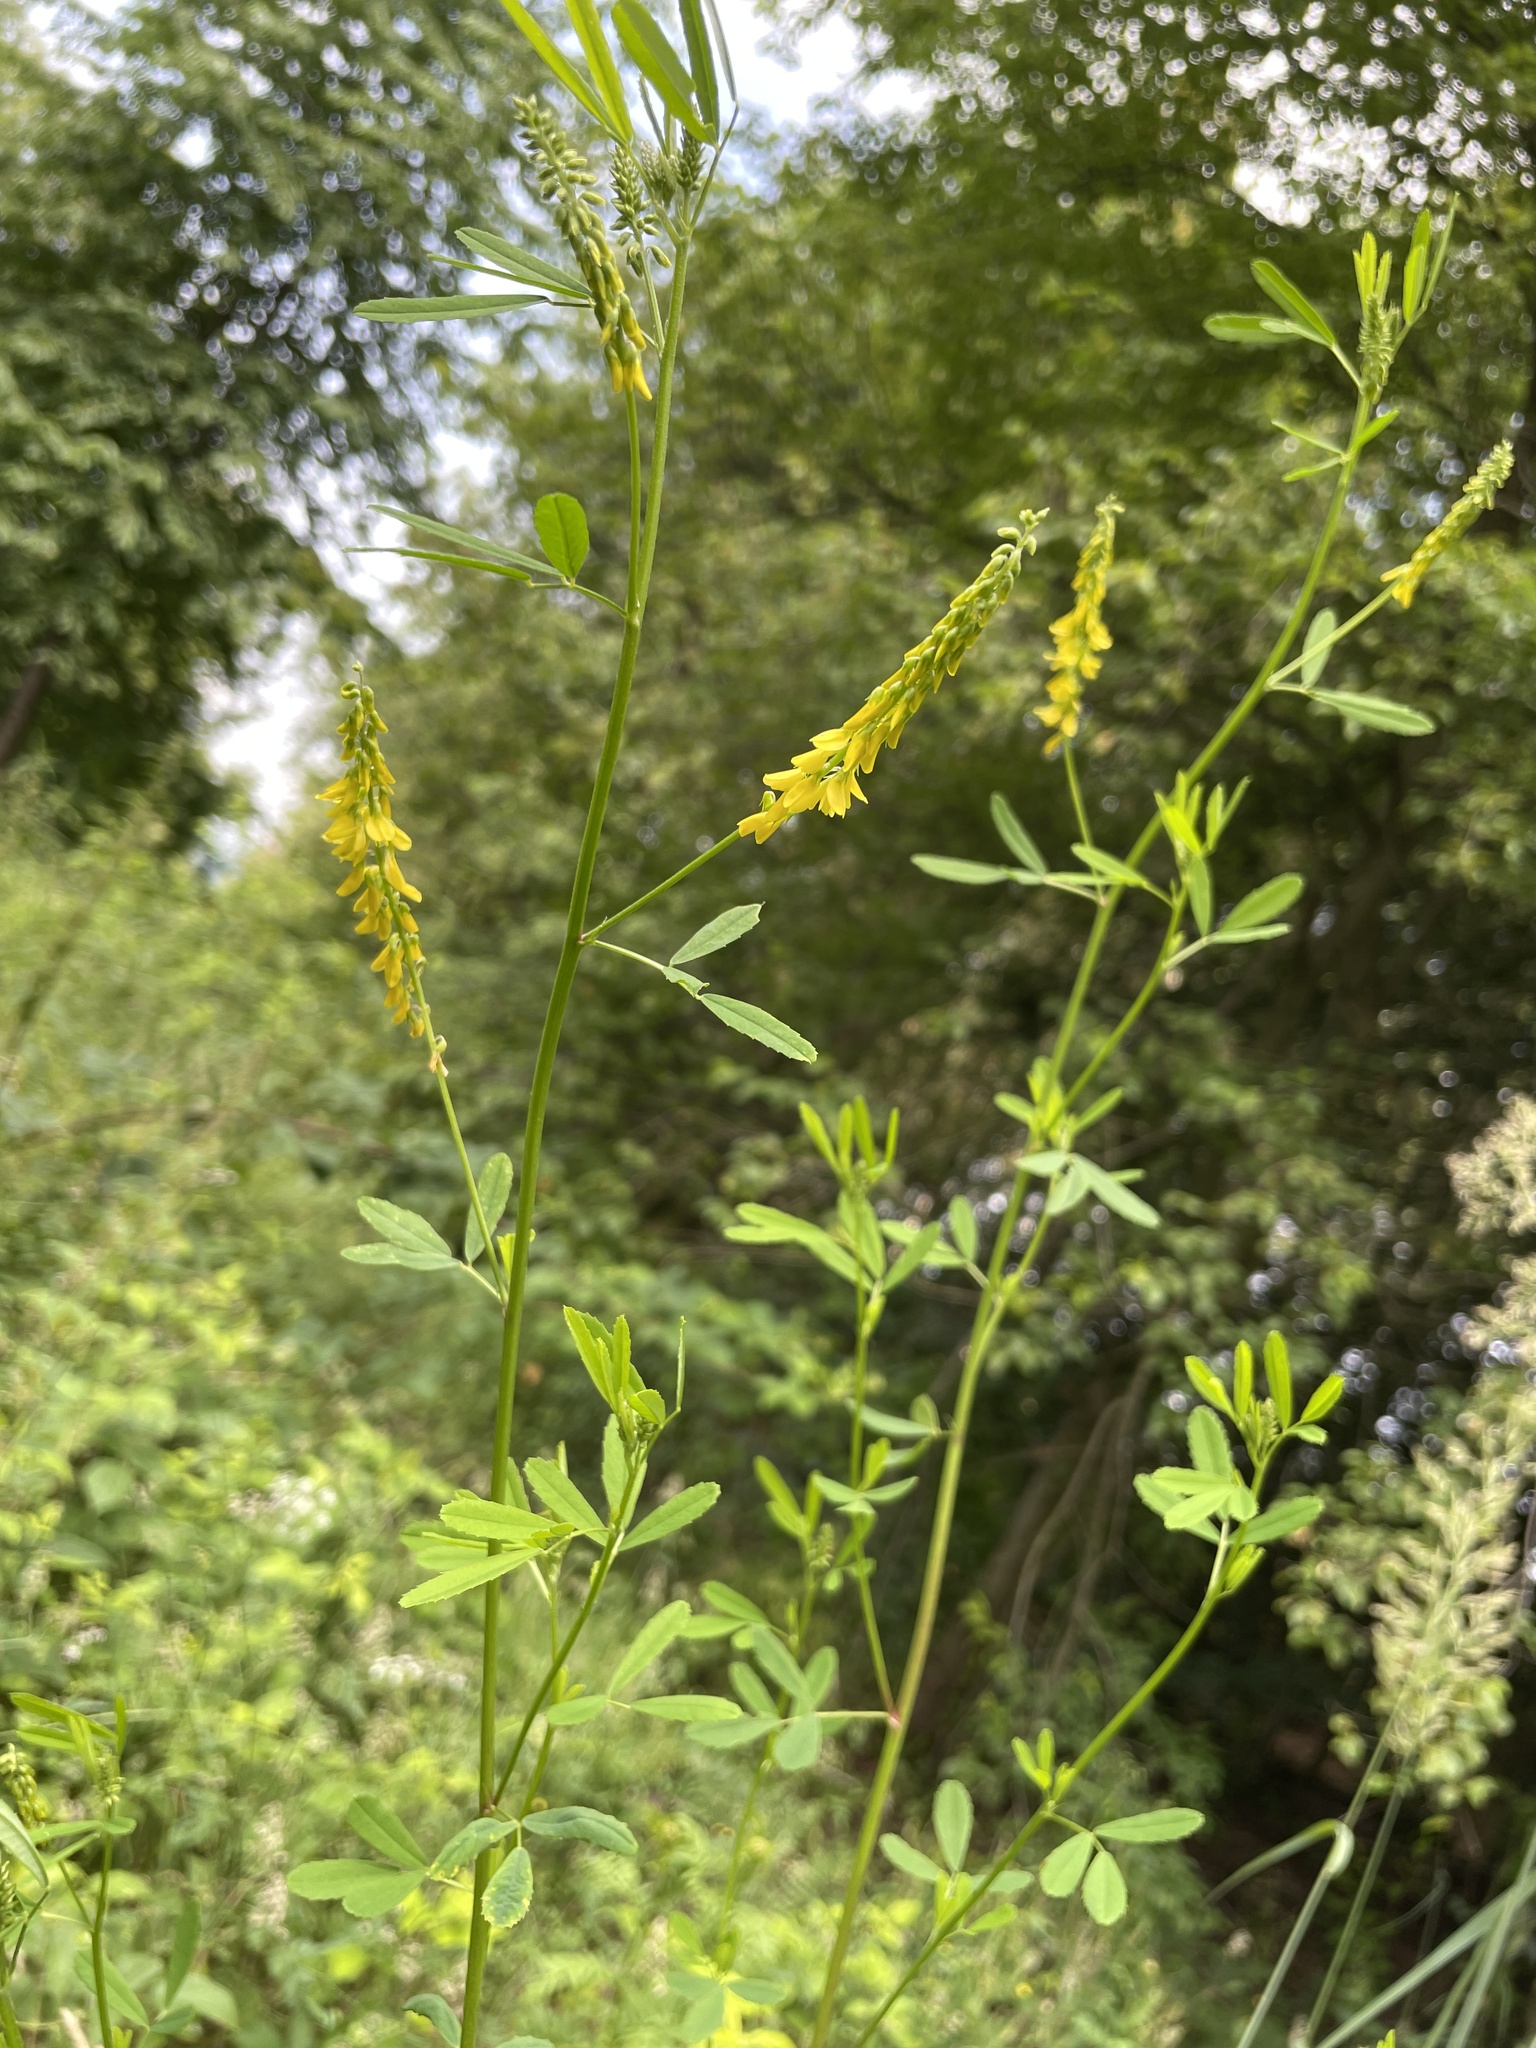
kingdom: Plantae
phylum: Tracheophyta
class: Magnoliopsida
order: Fabales
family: Fabaceae
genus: Melilotus
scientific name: Melilotus officinalis
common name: Sweetclover
